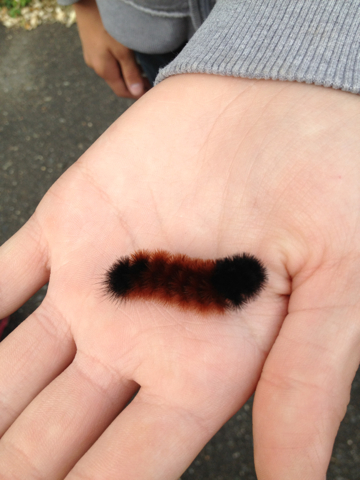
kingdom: Animalia
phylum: Arthropoda
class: Insecta
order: Lepidoptera
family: Erebidae
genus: Pyrrharctia
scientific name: Pyrrharctia isabella
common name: Isabella tiger moth
